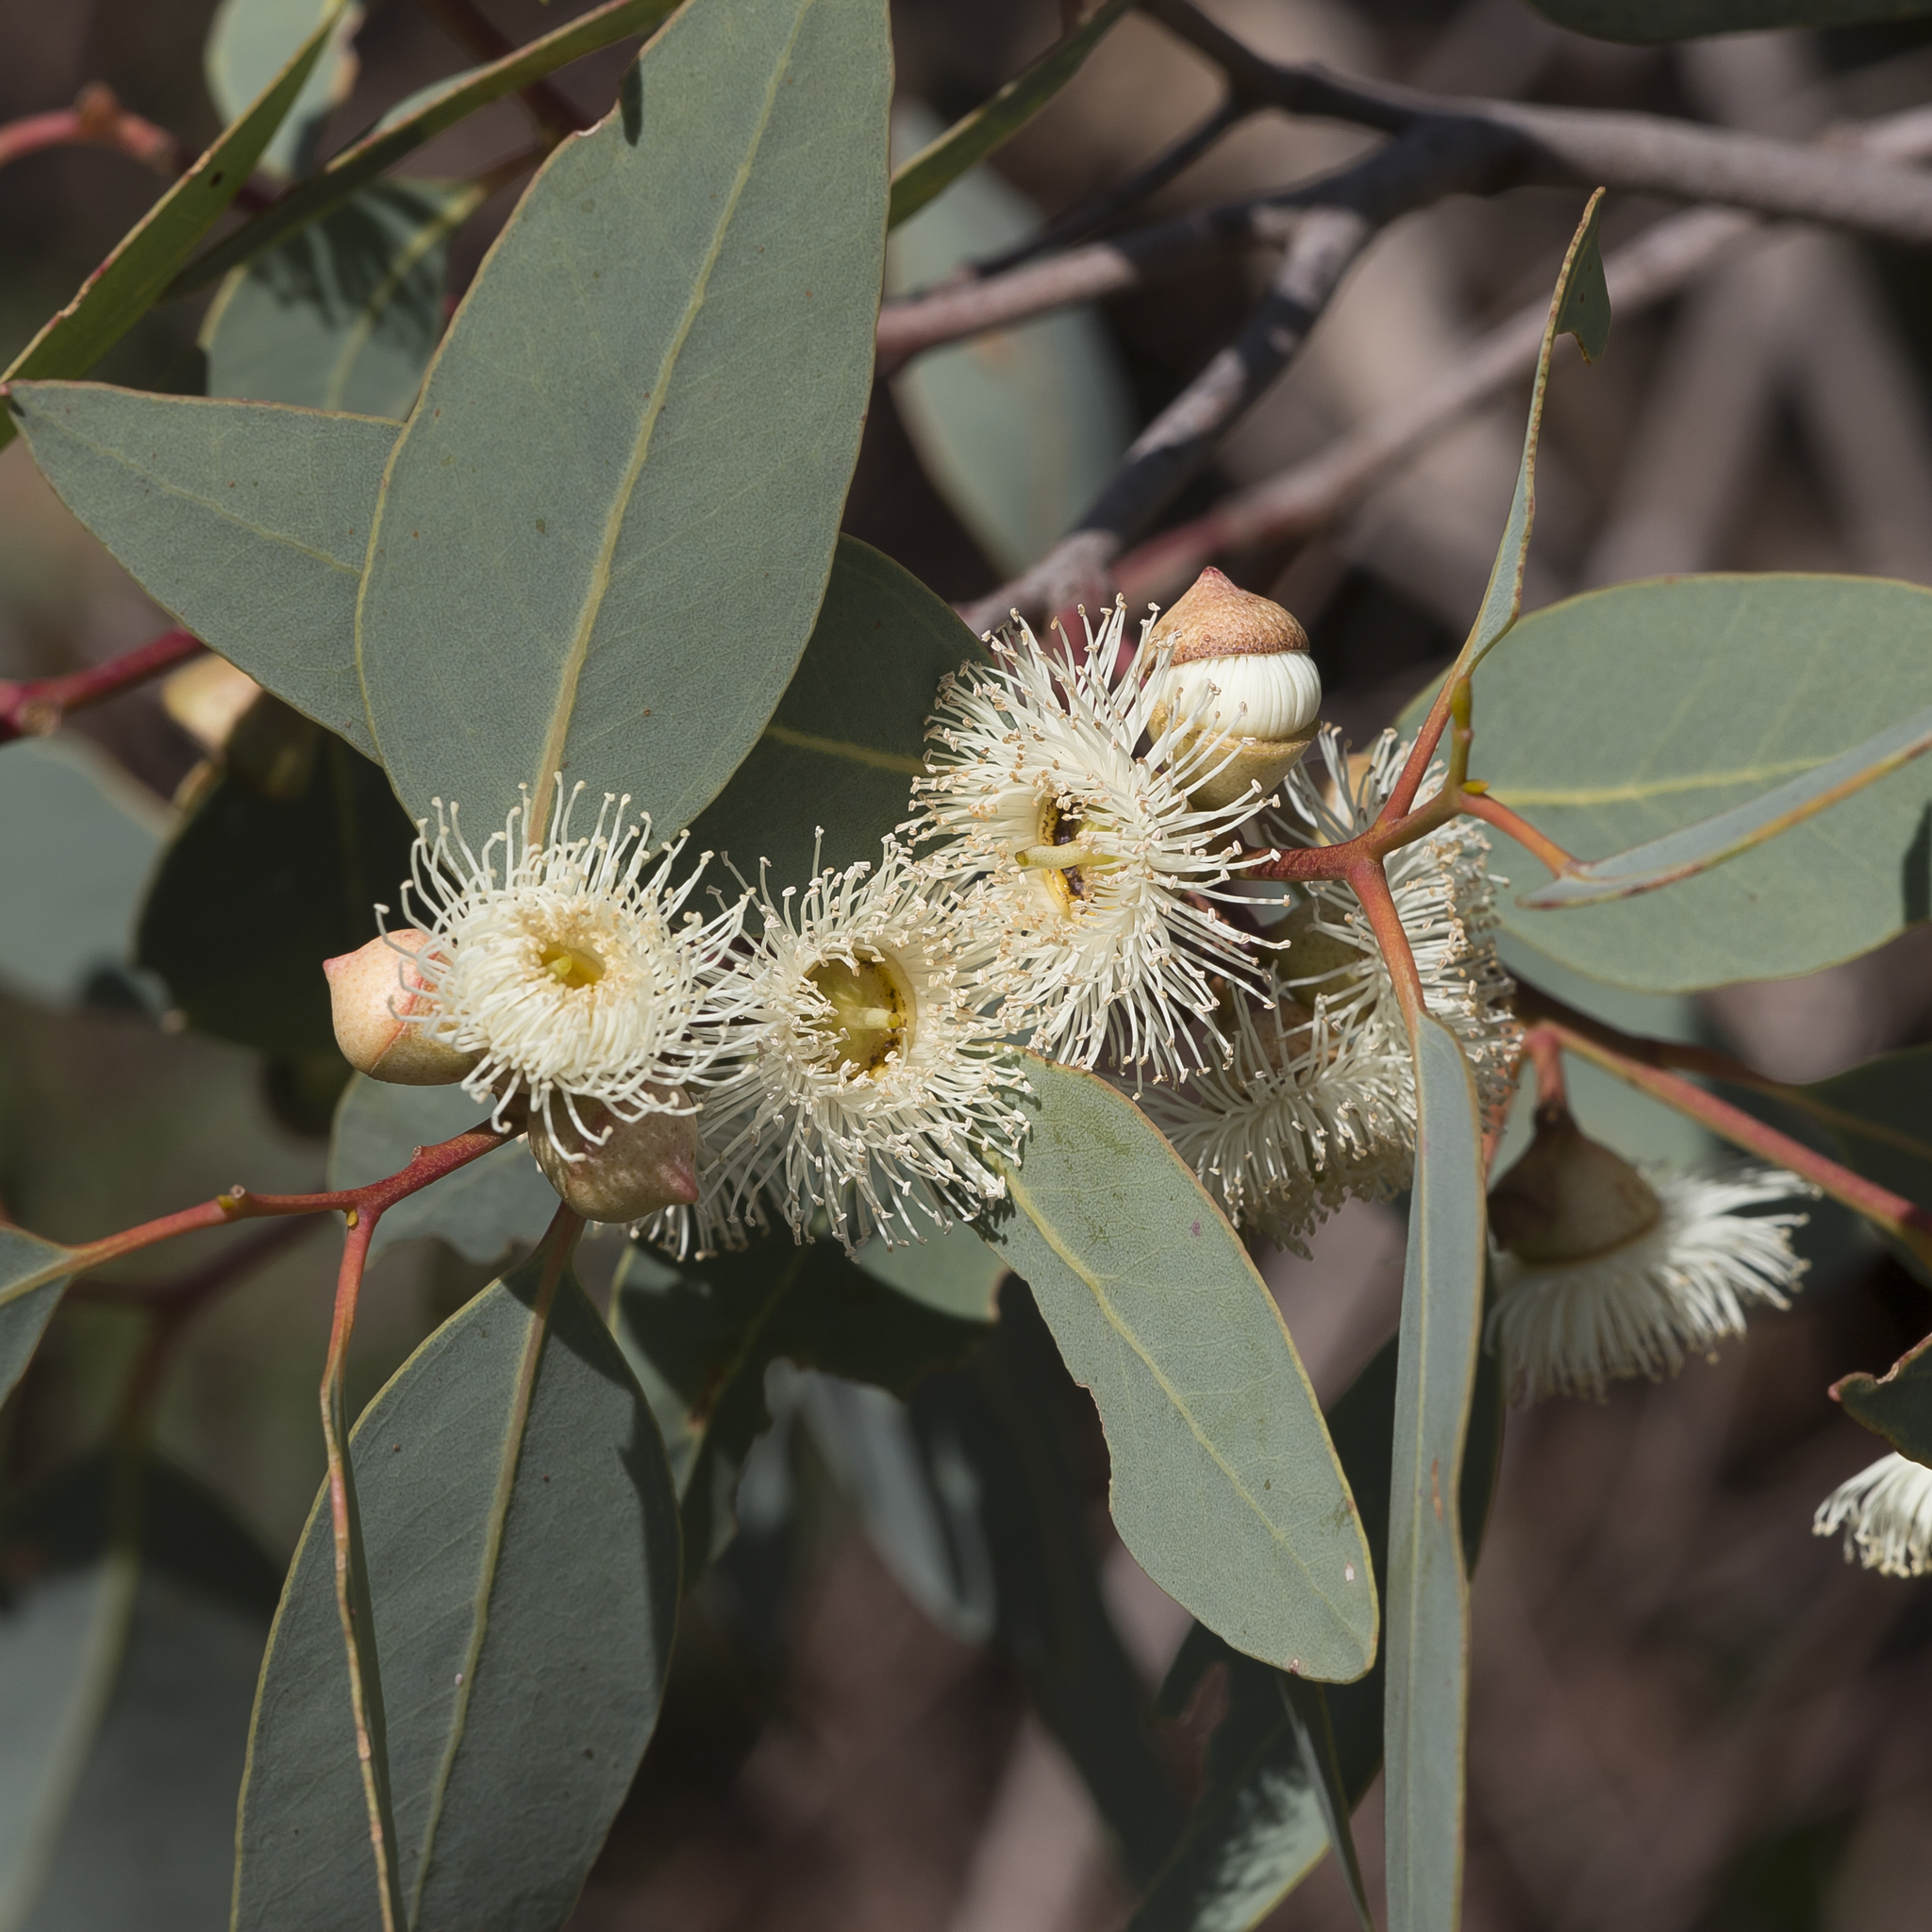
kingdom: Plantae
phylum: Tracheophyta
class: Magnoliopsida
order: Myrtales
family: Myrtaceae
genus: Eucalyptus
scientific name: Eucalyptus cosmophylla
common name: Bog-gum
